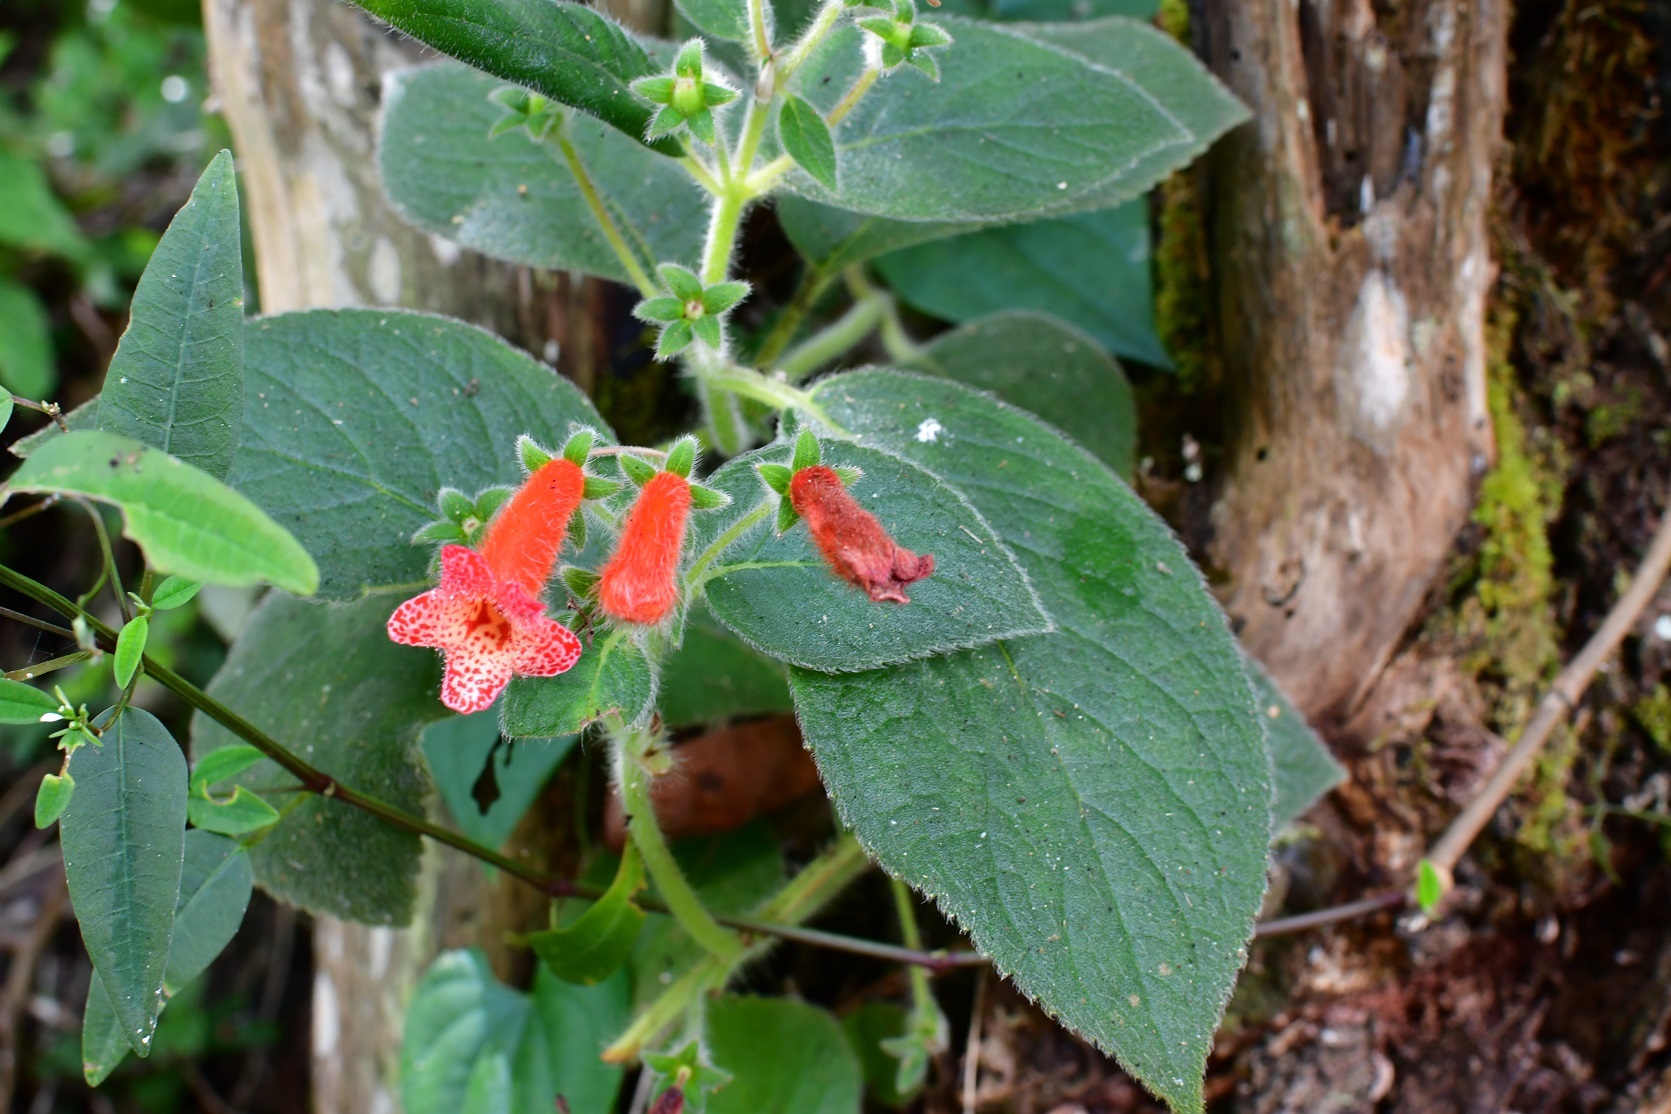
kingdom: Plantae
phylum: Tracheophyta
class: Magnoliopsida
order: Lamiales
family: Gesneriaceae
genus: Kohleria
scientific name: Kohleria rugata
